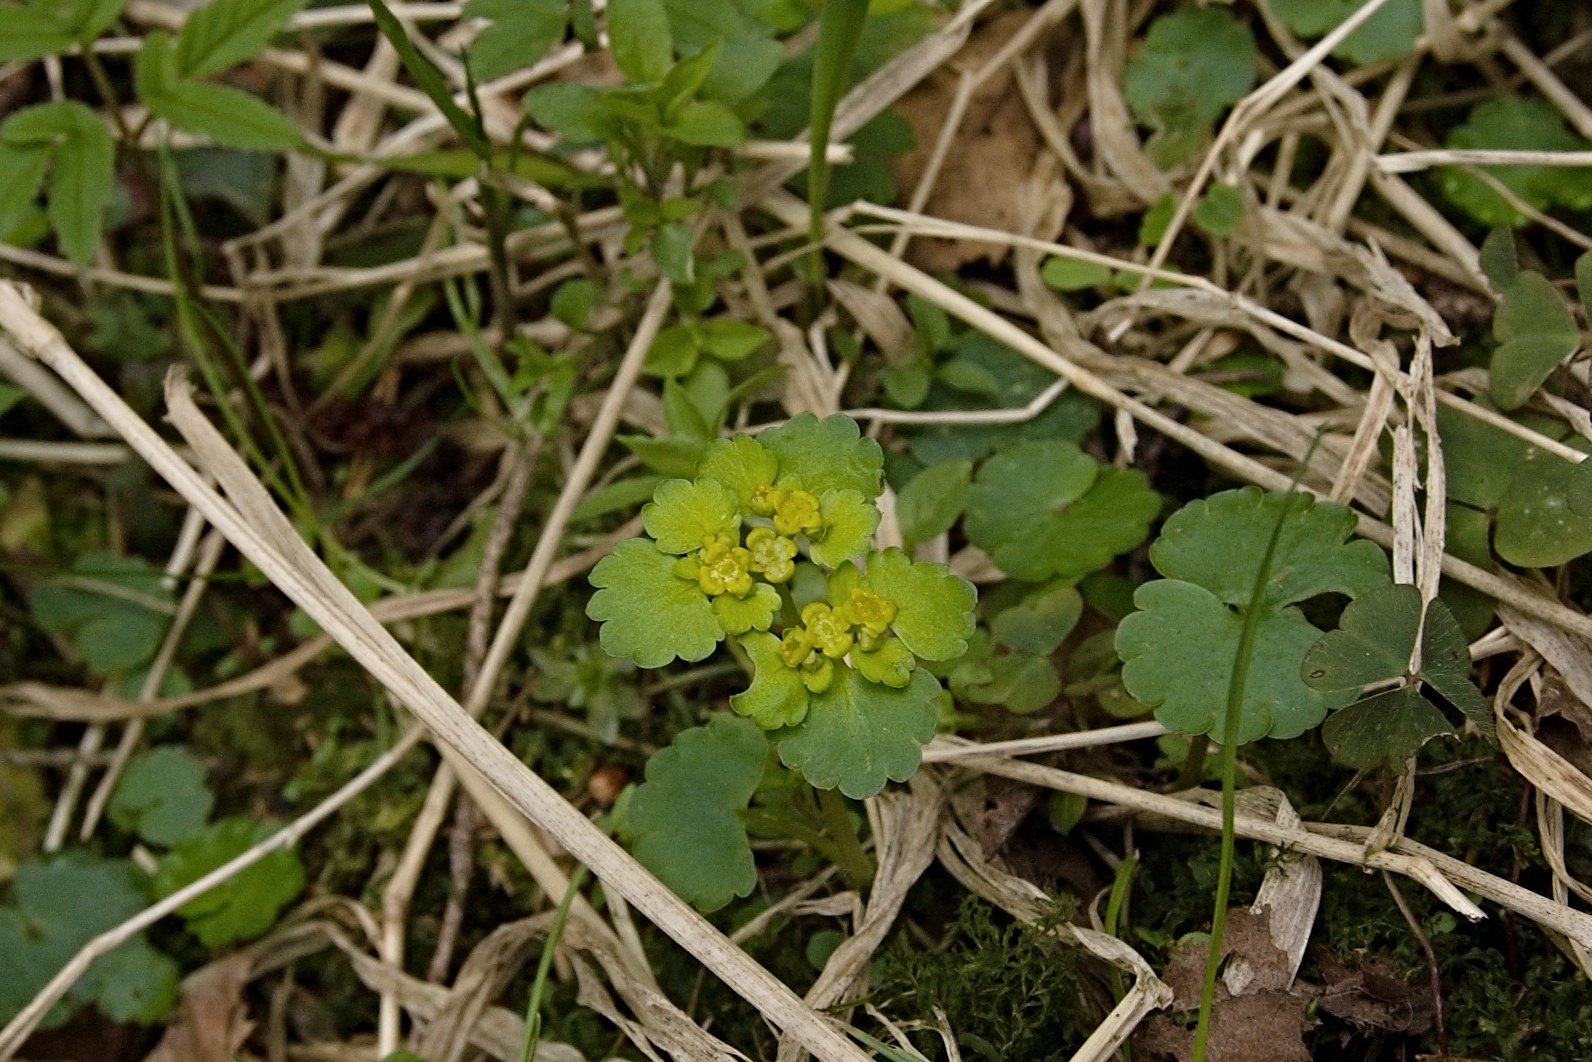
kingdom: Plantae
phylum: Tracheophyta
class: Magnoliopsida
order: Saxifragales
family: Saxifragaceae
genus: Chrysosplenium
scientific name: Chrysosplenium alternifolium
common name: Alternate-leaved golden-saxifrage
